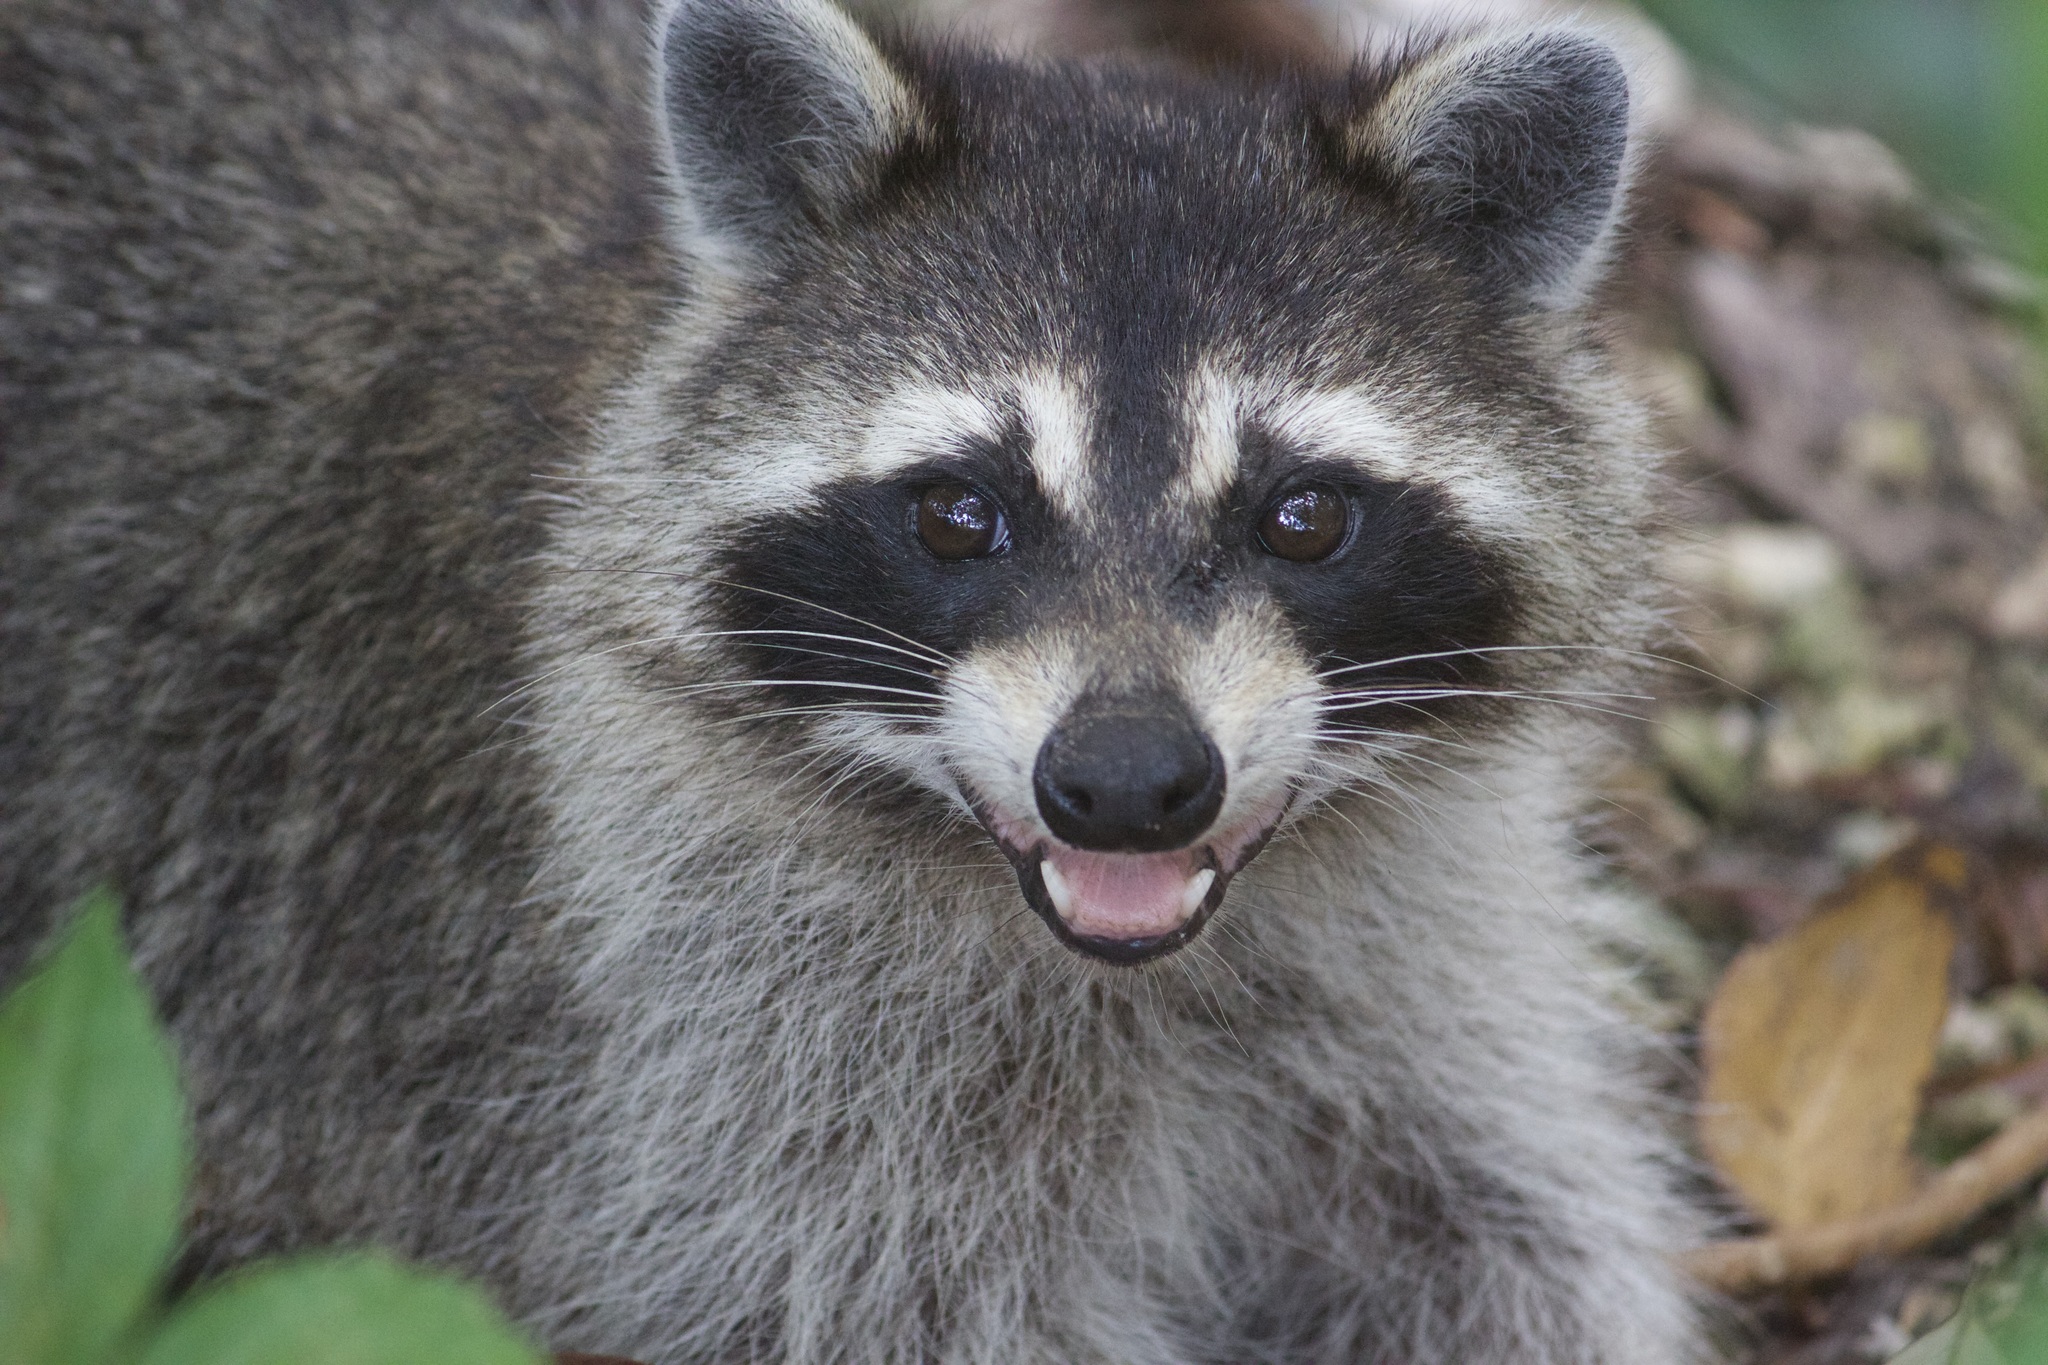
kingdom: Animalia
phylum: Chordata
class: Mammalia
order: Carnivora
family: Procyonidae
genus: Procyon
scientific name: Procyon lotor
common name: Raccoon
